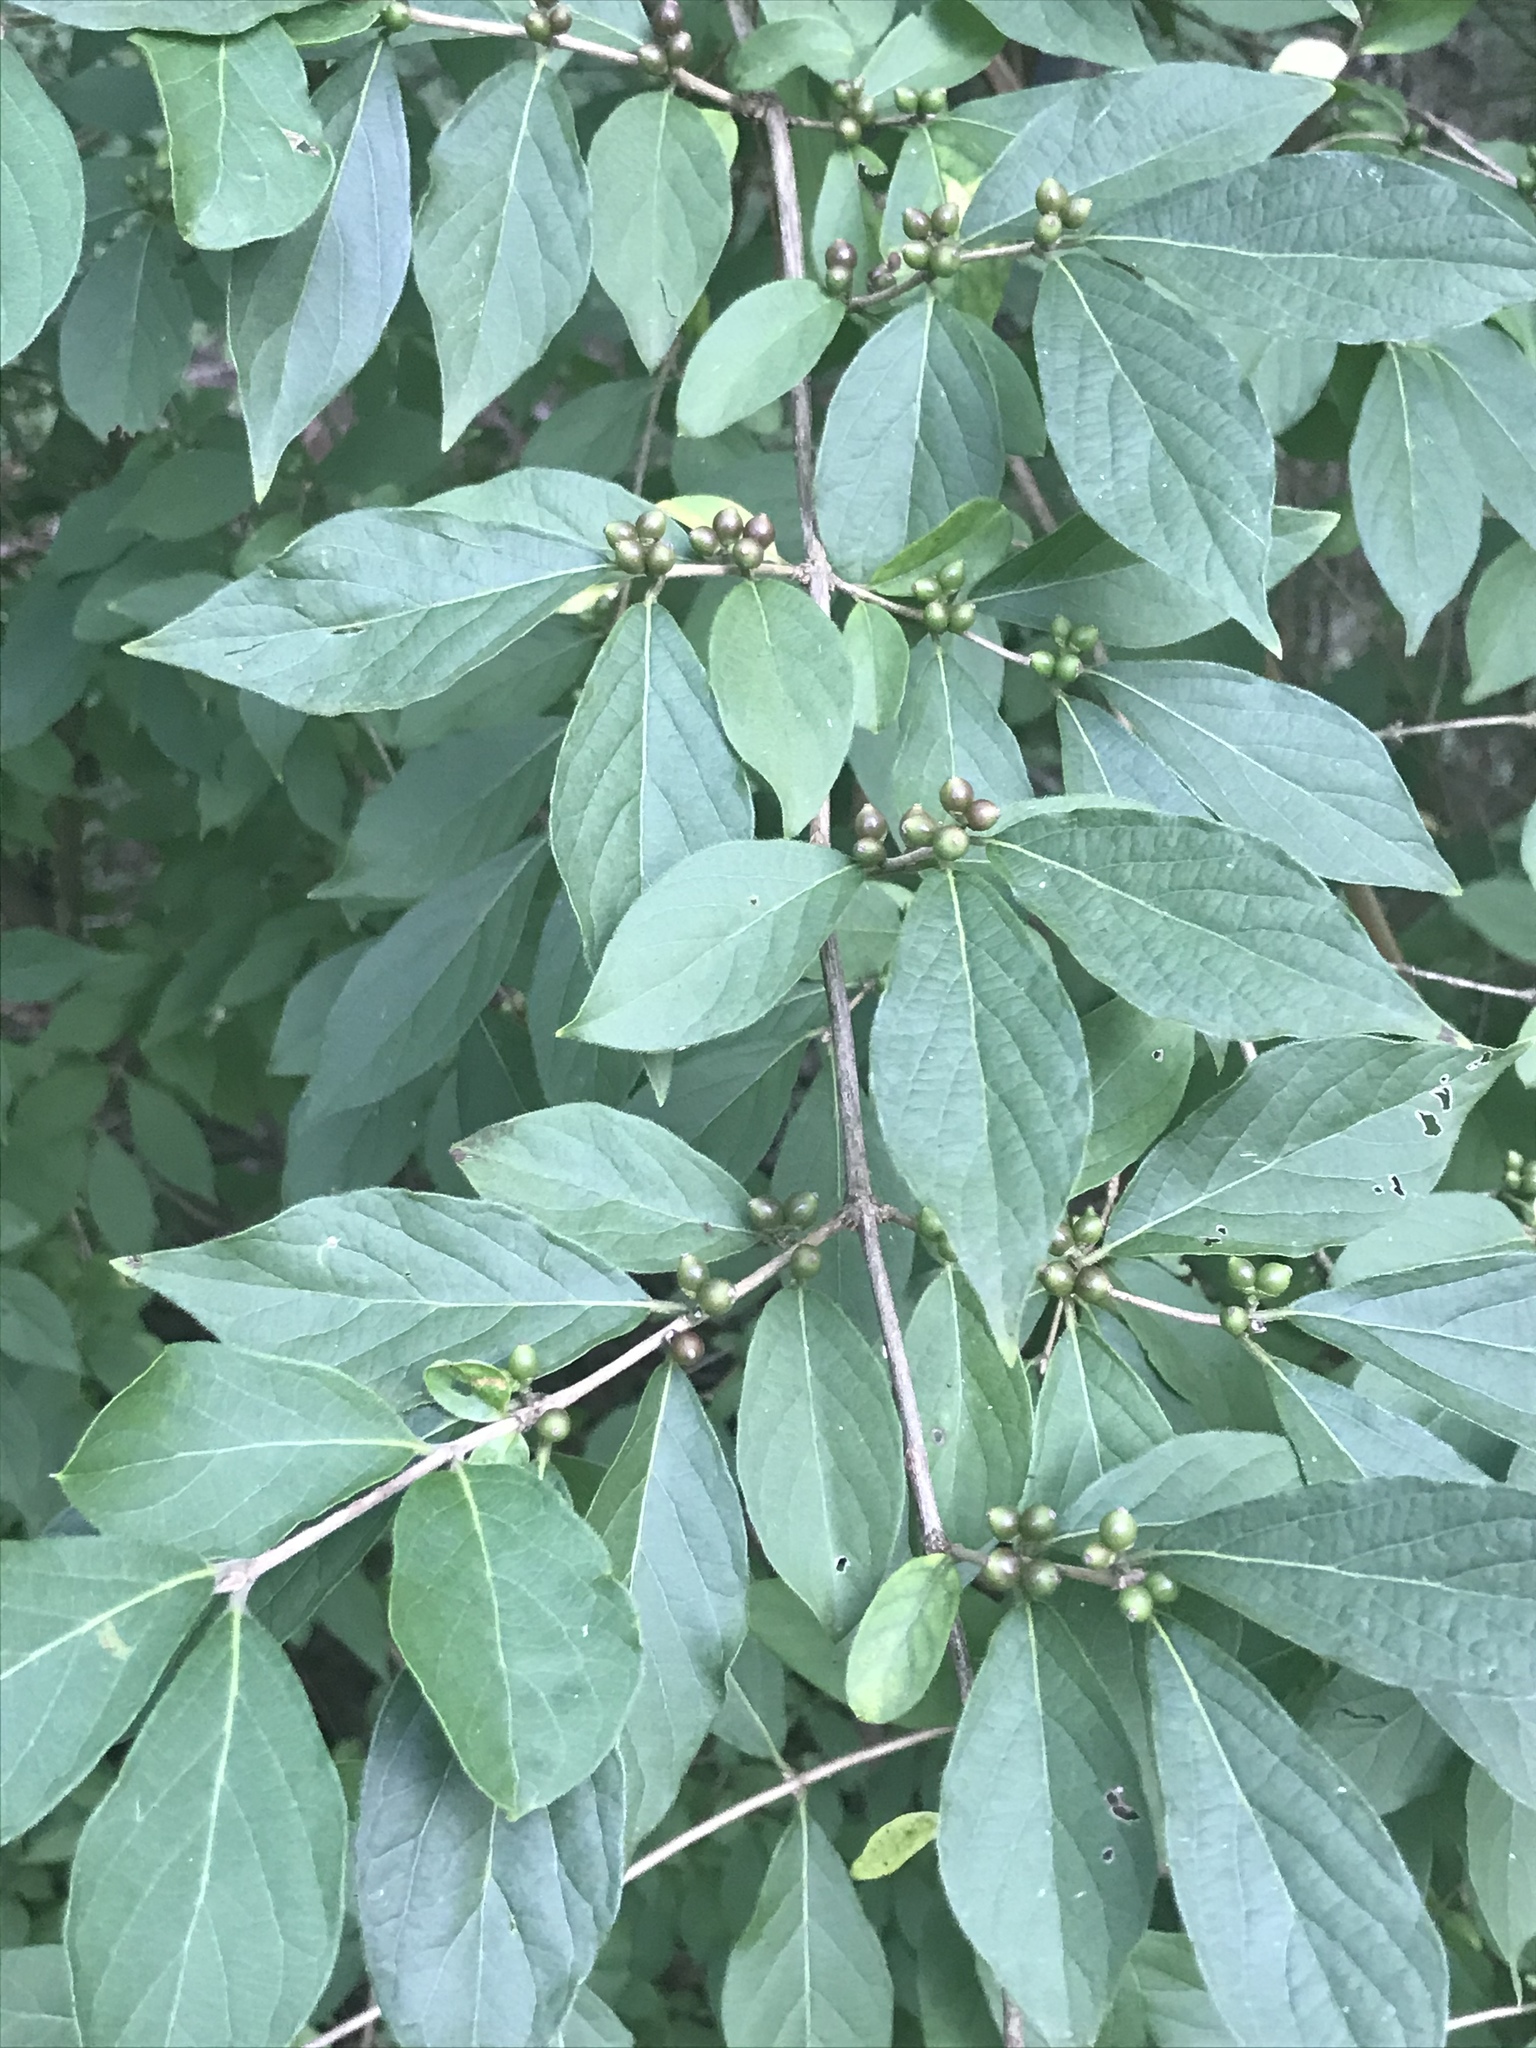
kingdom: Plantae
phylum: Tracheophyta
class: Magnoliopsida
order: Dipsacales
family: Caprifoliaceae
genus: Lonicera
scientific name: Lonicera maackii
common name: Amur honeysuckle
